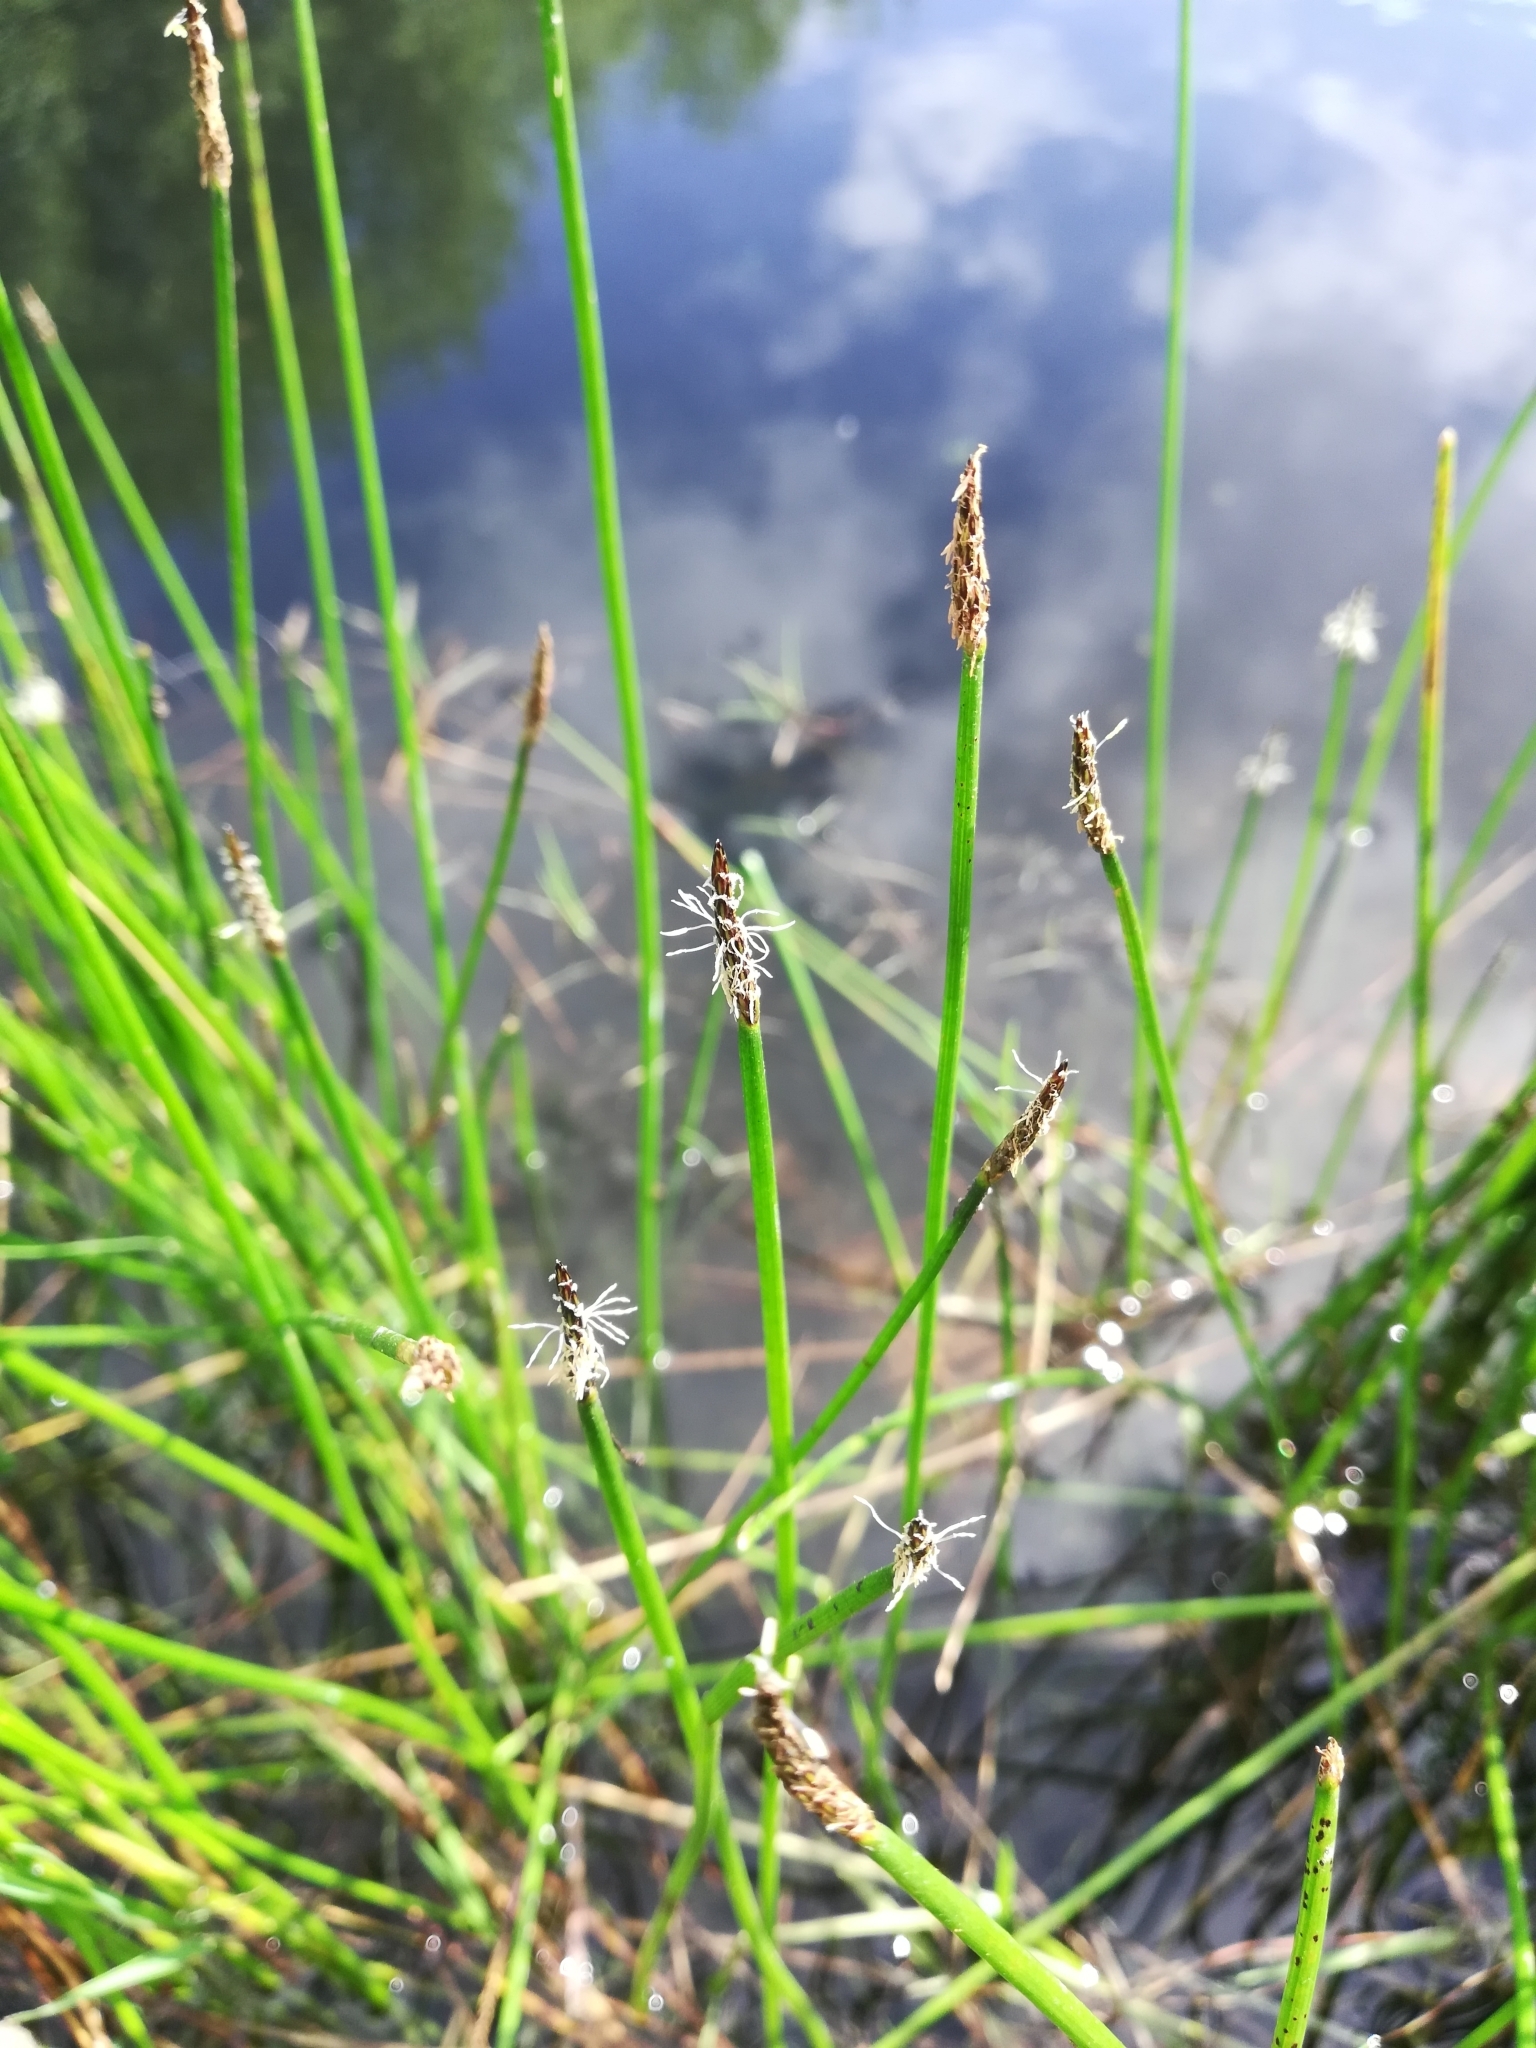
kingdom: Plantae
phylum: Tracheophyta
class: Liliopsida
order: Poales
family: Cyperaceae
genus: Eleocharis
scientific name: Eleocharis palustris
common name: Common spike-rush
